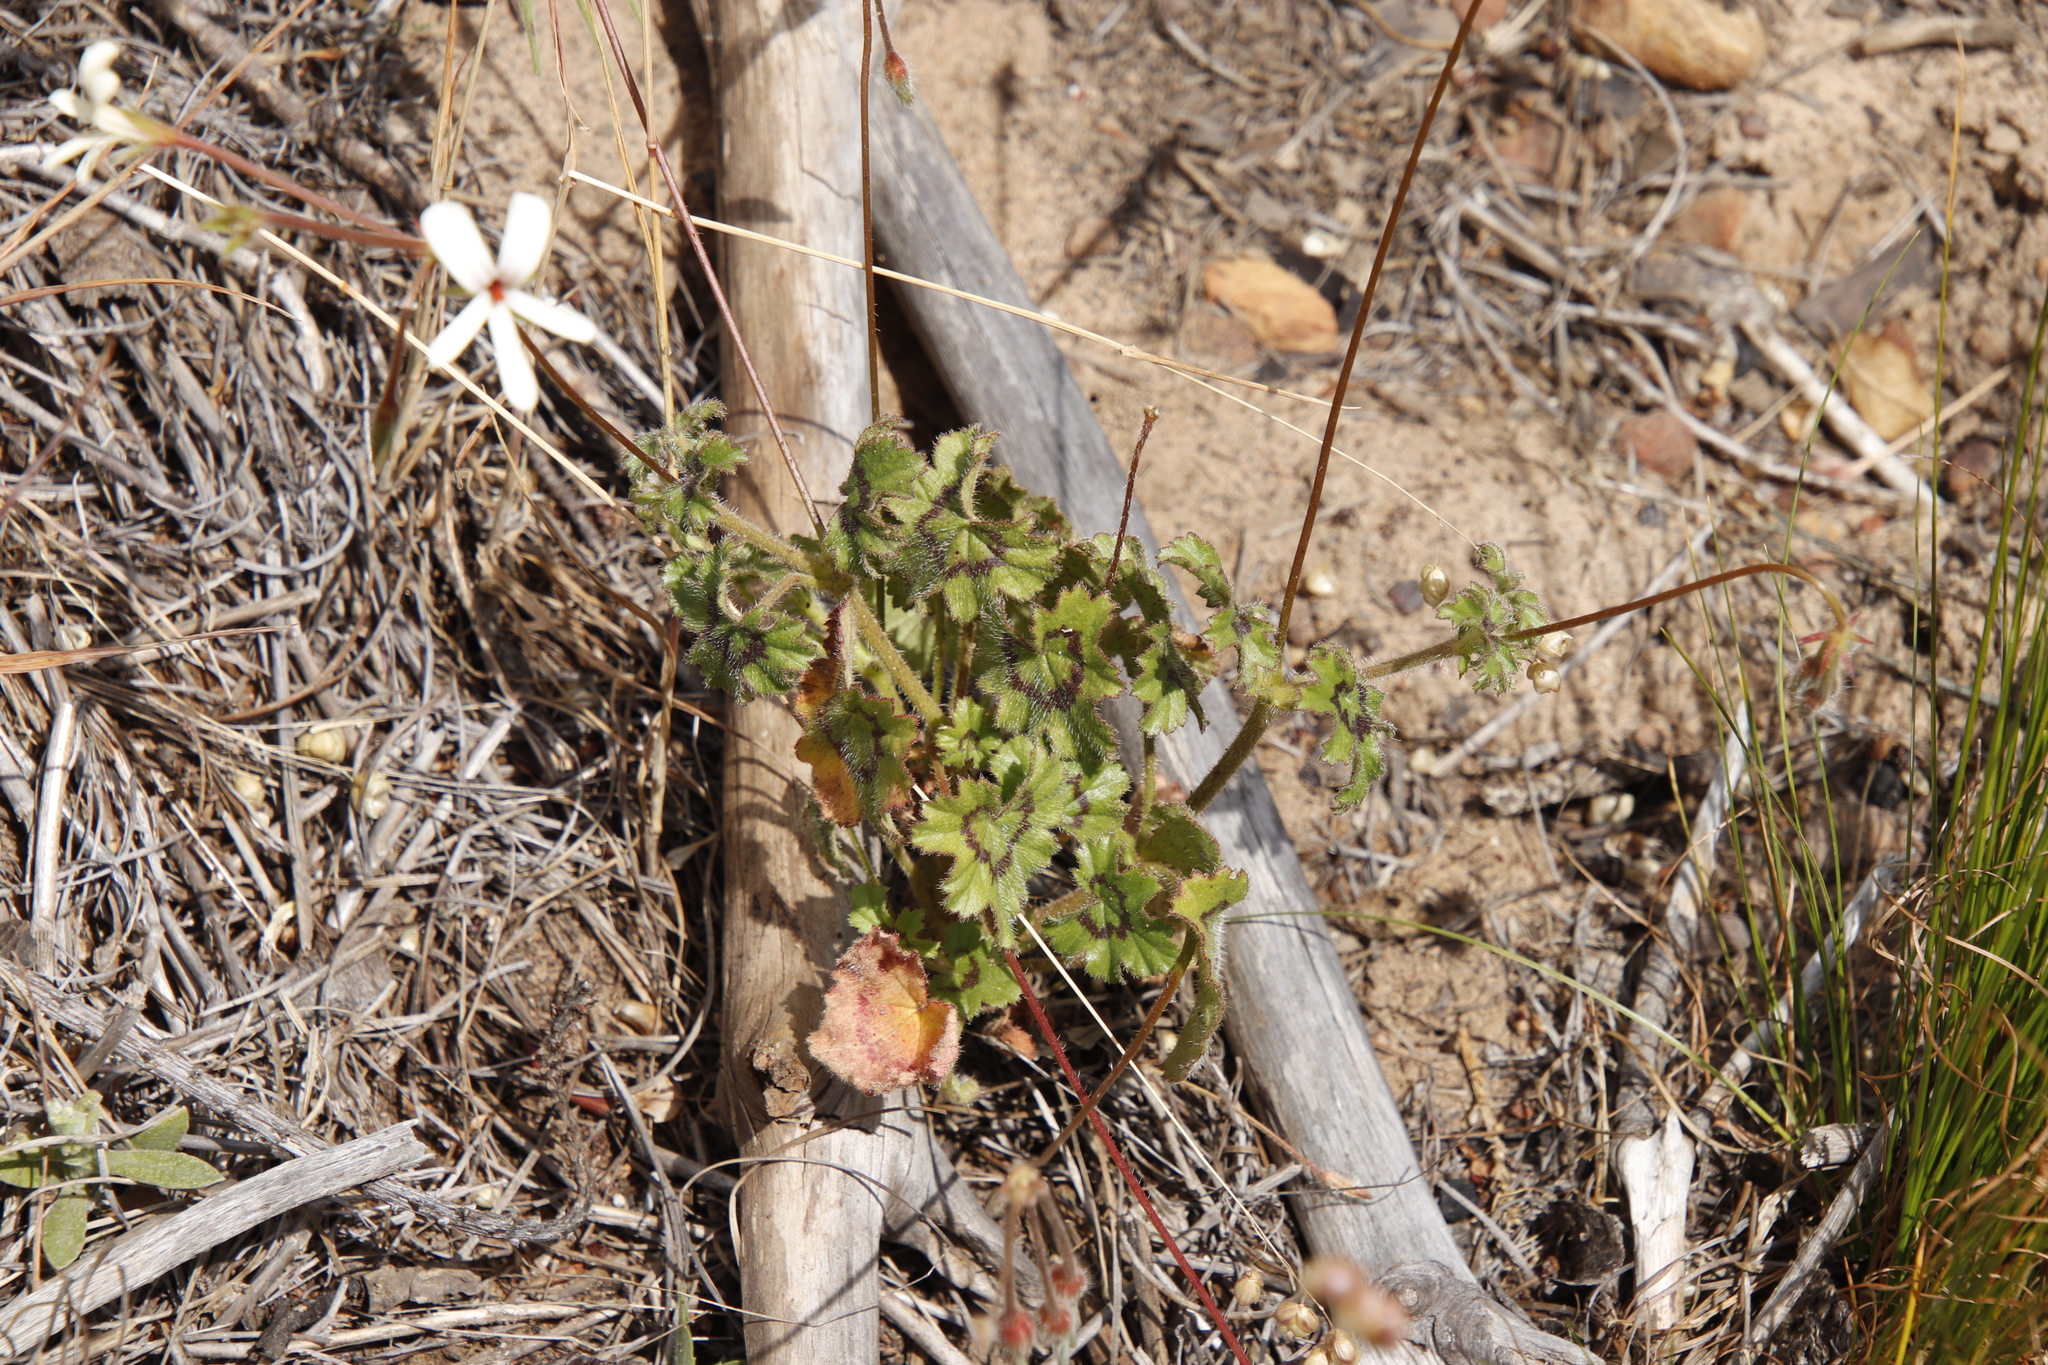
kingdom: Plantae
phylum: Tracheophyta
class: Magnoliopsida
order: Geraniales
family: Geraniaceae
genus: Pelargonium
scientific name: Pelargonium elongatum
